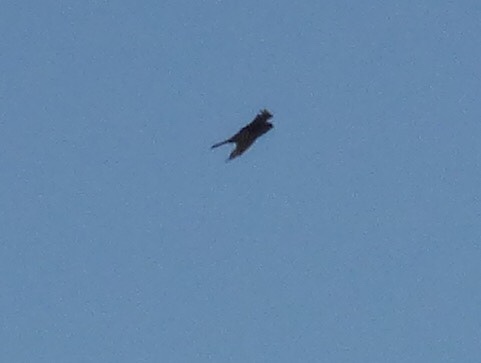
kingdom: Animalia
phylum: Chordata
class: Aves
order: Falconiformes
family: Falconidae
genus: Falco
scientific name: Falco sparverius
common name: American kestrel
